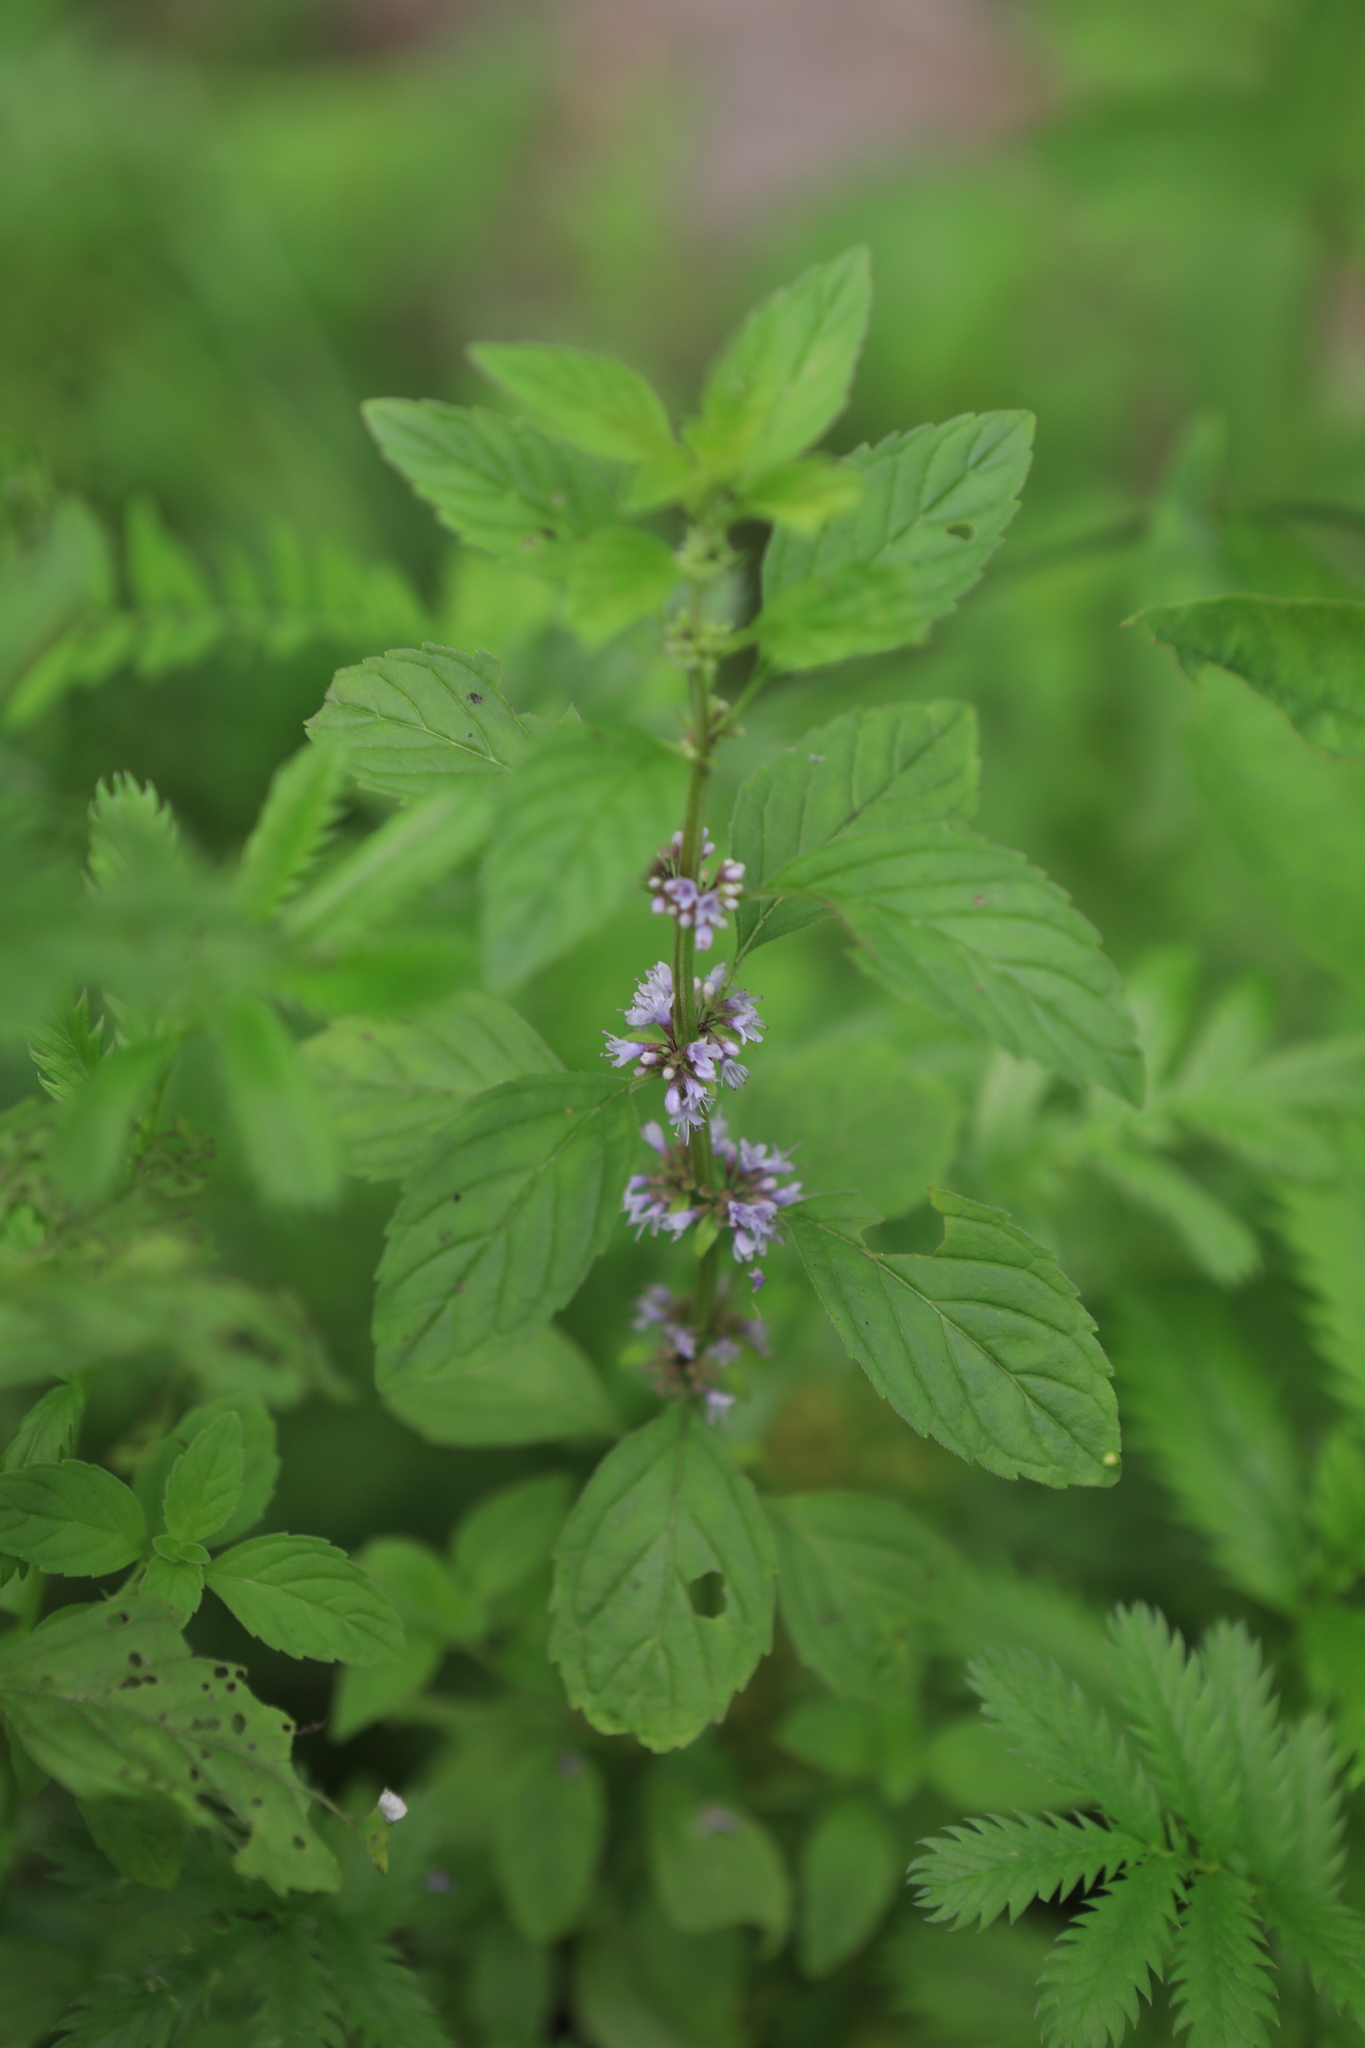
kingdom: Plantae
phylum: Tracheophyta
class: Magnoliopsida
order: Lamiales
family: Lamiaceae
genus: Mentha
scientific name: Mentha arvensis
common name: Corn mint
